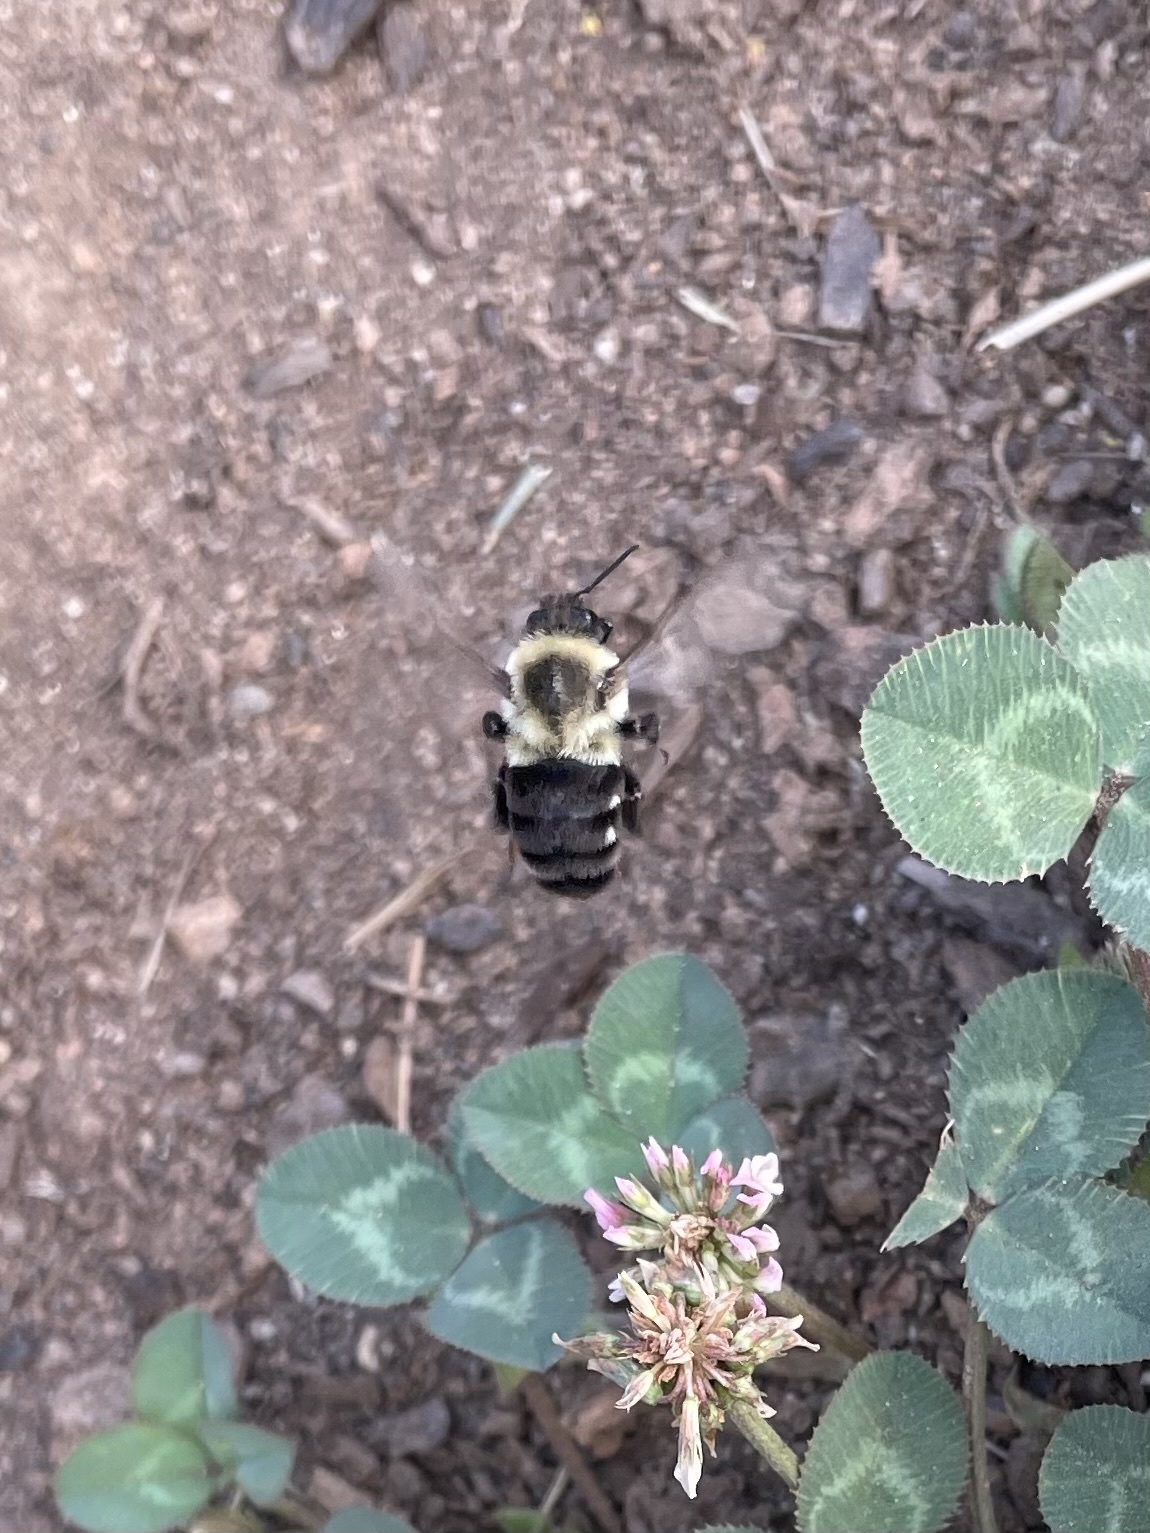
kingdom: Animalia
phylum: Arthropoda
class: Insecta
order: Hymenoptera
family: Apidae
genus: Bombus
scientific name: Bombus impatiens
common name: Common eastern bumble bee
